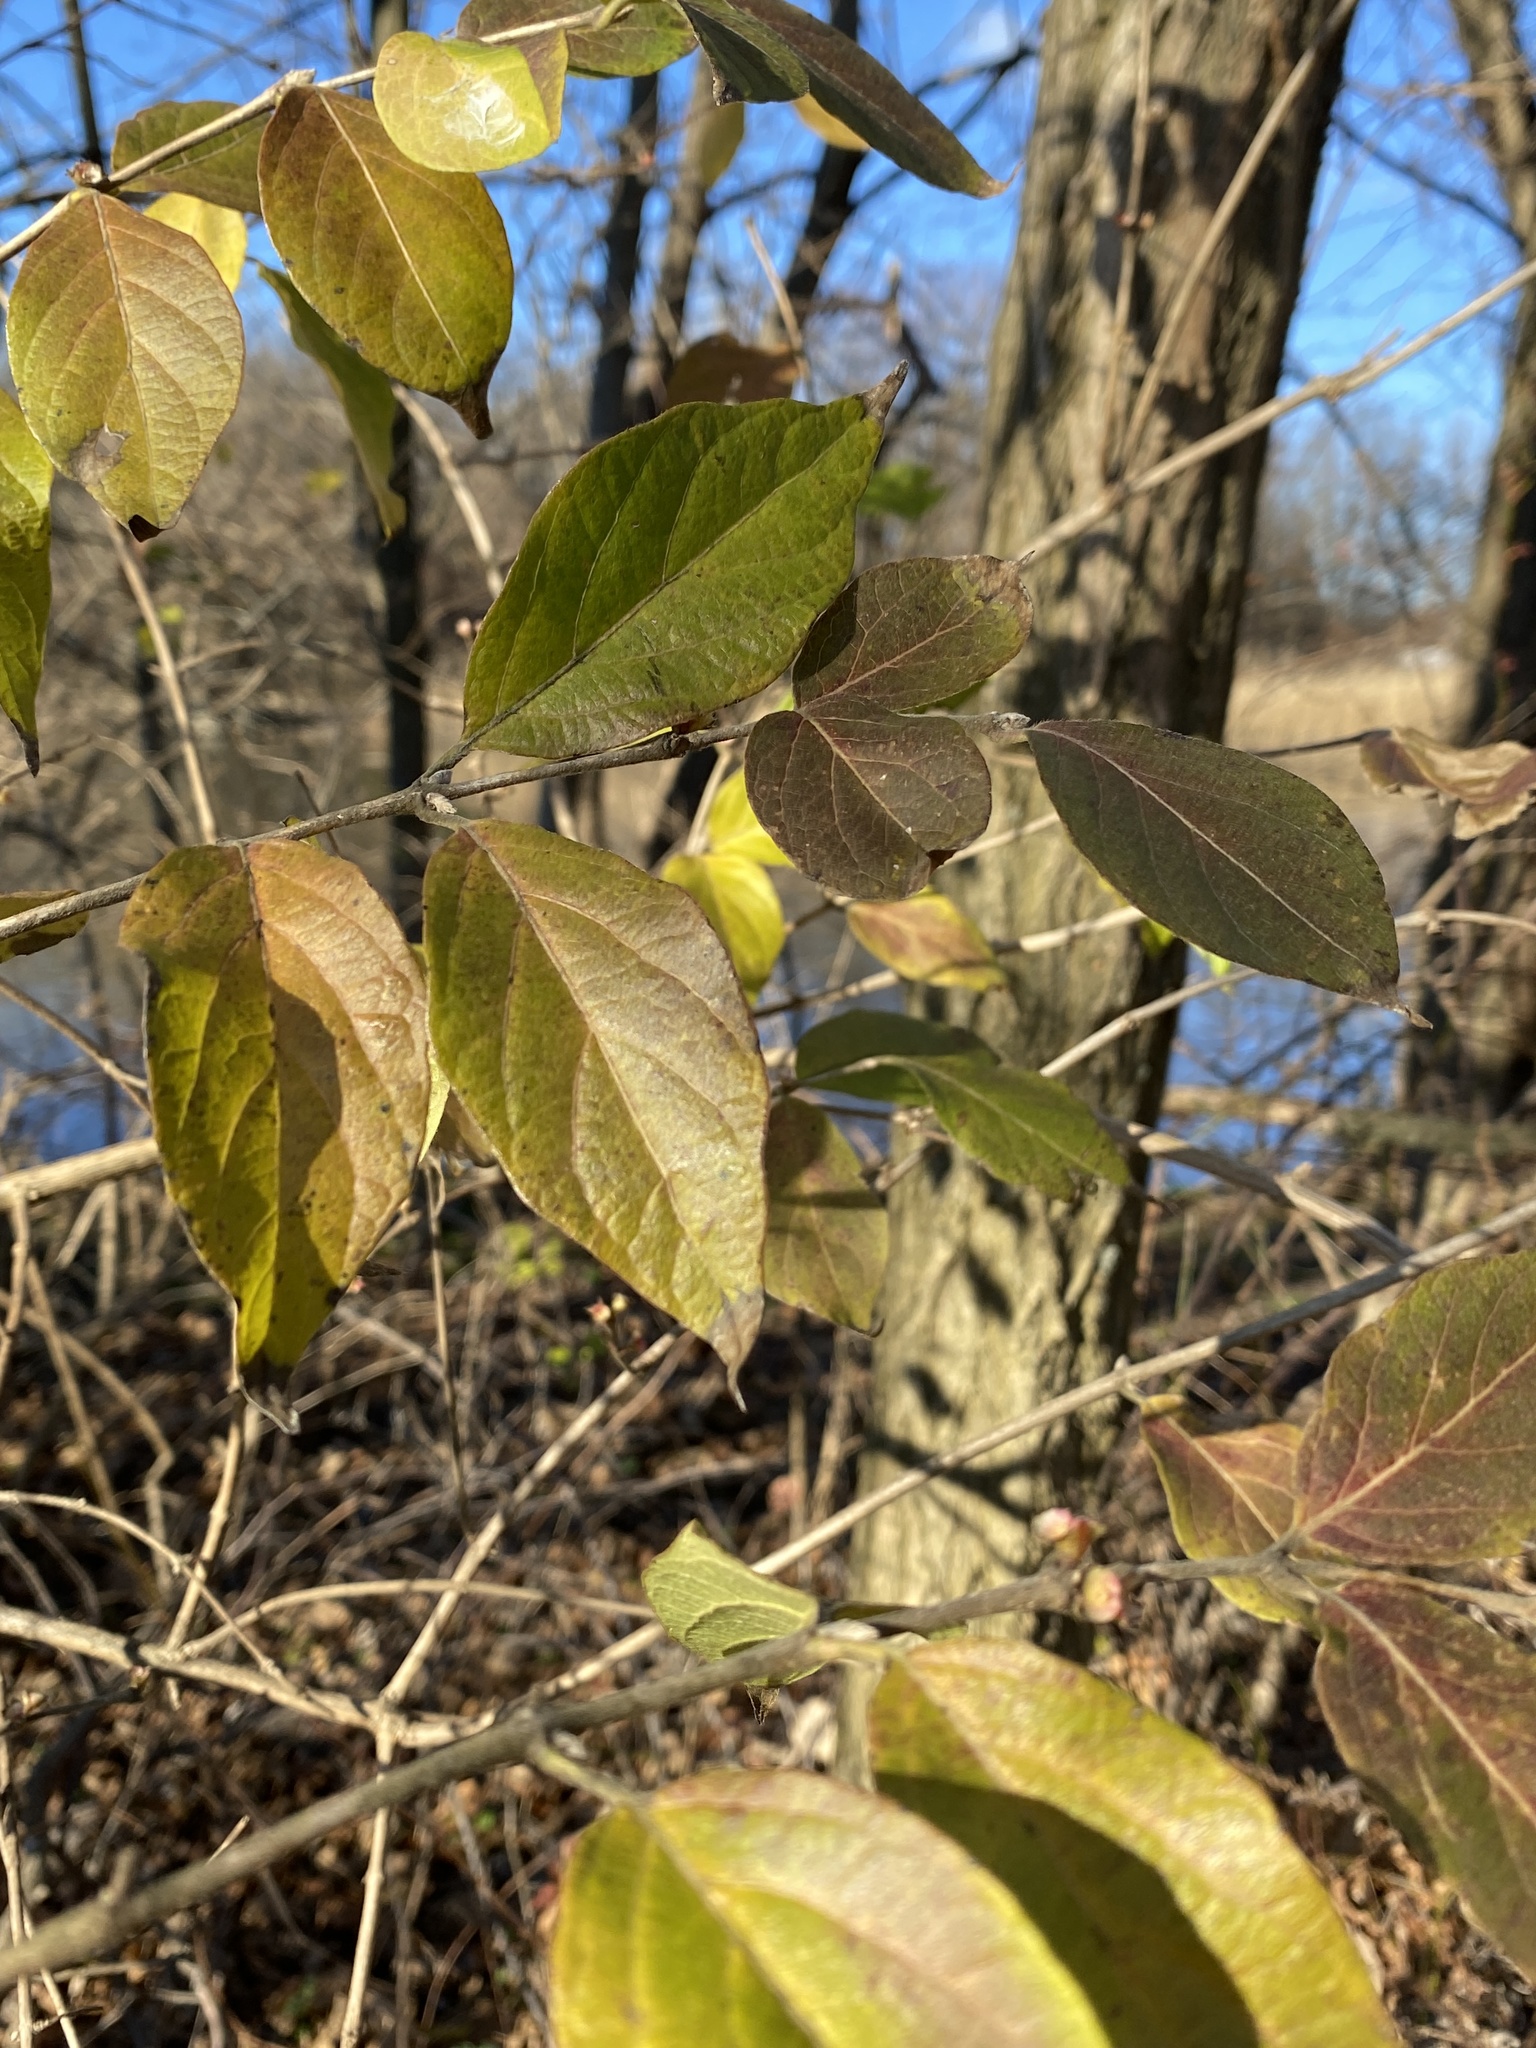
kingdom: Plantae
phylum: Tracheophyta
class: Magnoliopsida
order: Dipsacales
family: Caprifoliaceae
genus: Lonicera
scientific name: Lonicera maackii
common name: Amur honeysuckle
